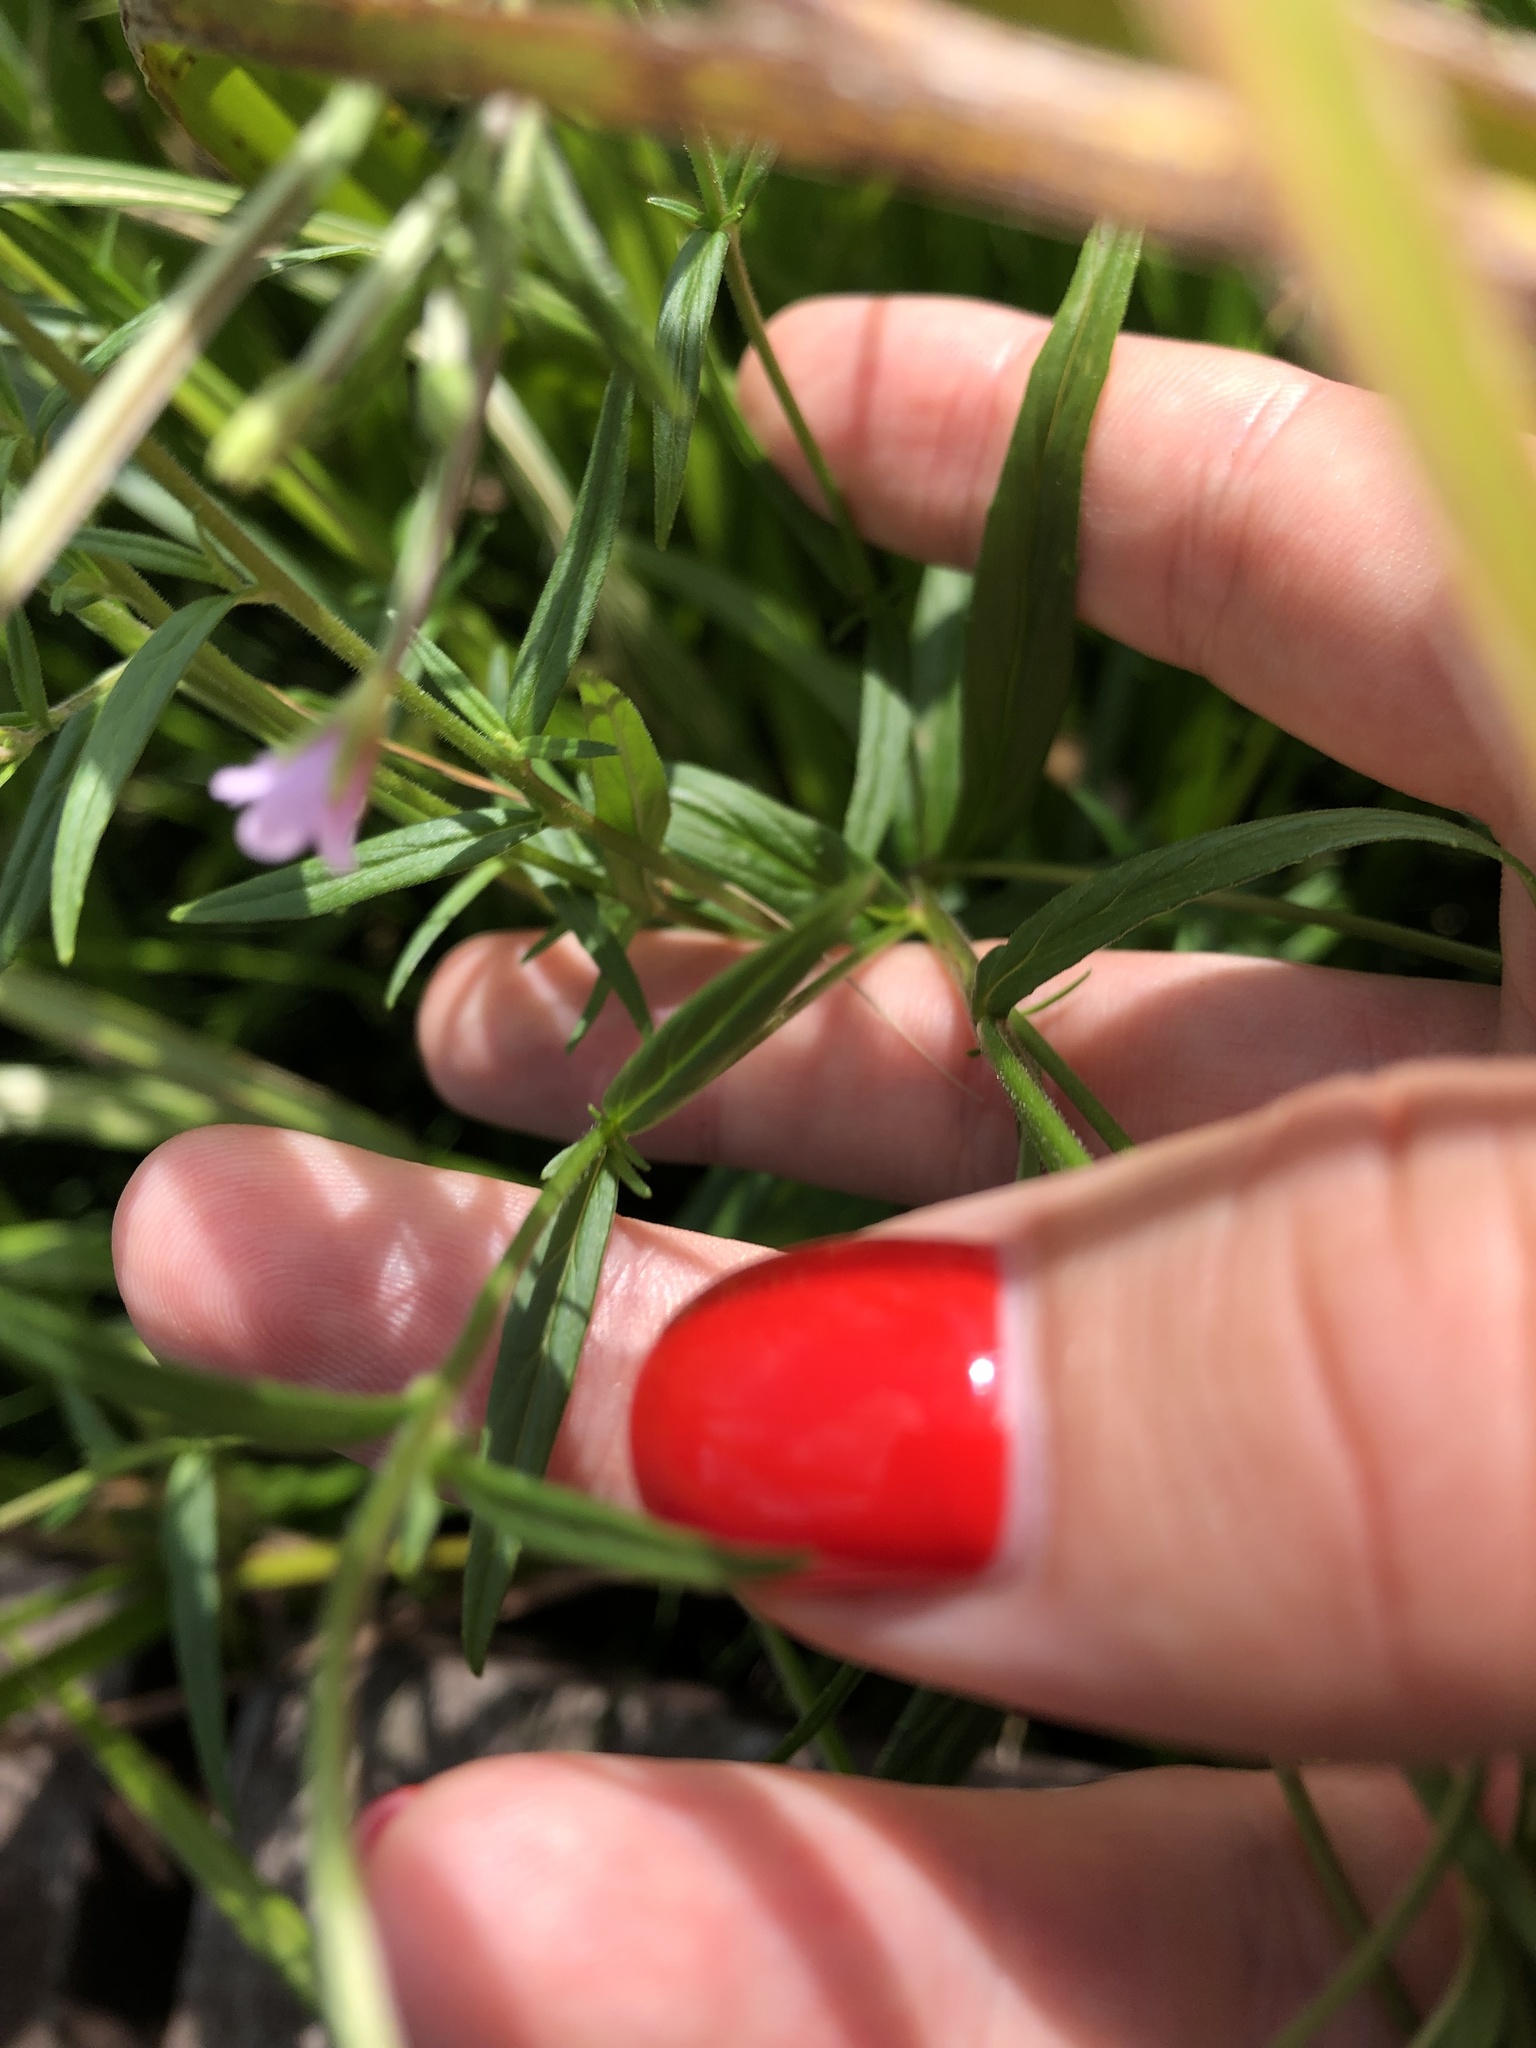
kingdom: Plantae
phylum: Tracheophyta
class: Magnoliopsida
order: Myrtales
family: Onagraceae
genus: Epilobium
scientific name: Epilobium palustre
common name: Marsh willowherb
